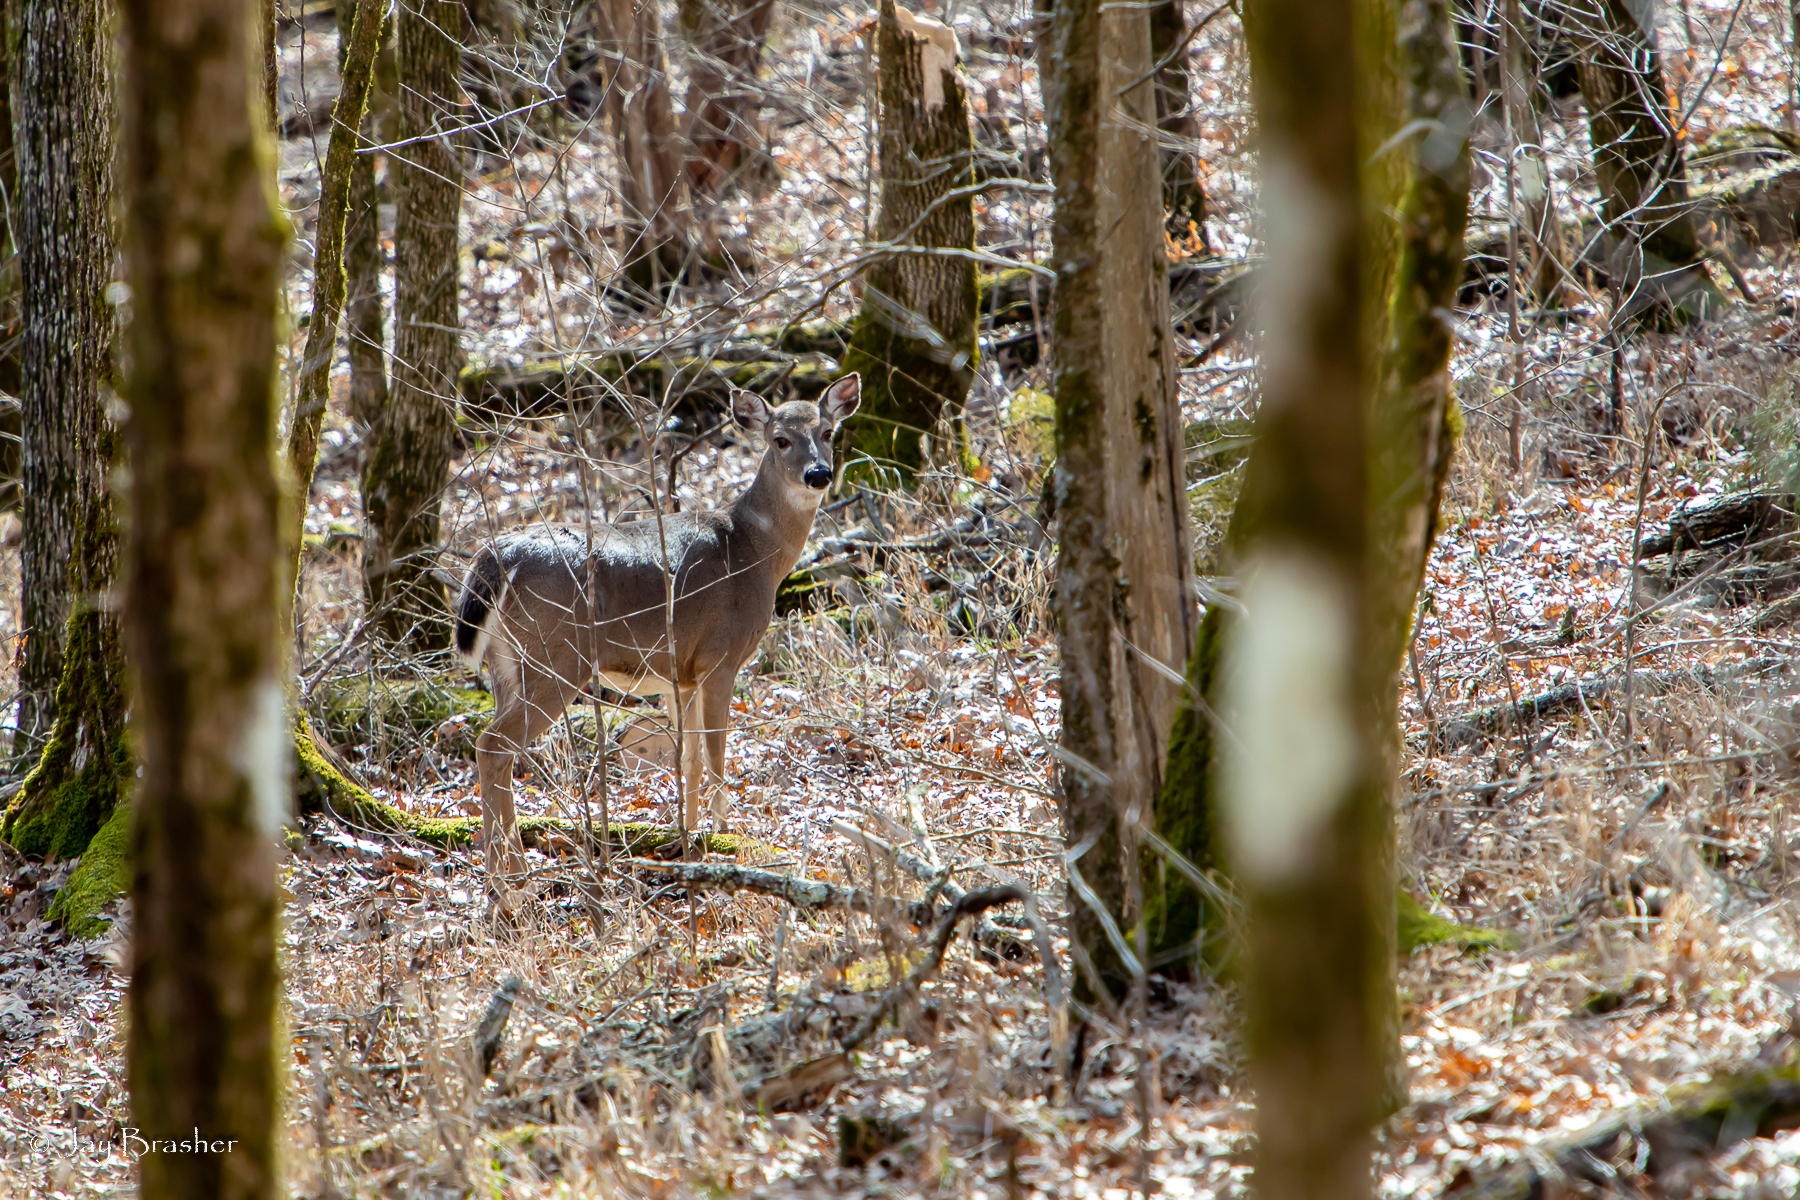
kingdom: Animalia
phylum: Chordata
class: Mammalia
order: Artiodactyla
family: Cervidae
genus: Odocoileus
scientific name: Odocoileus virginianus
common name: White-tailed deer
